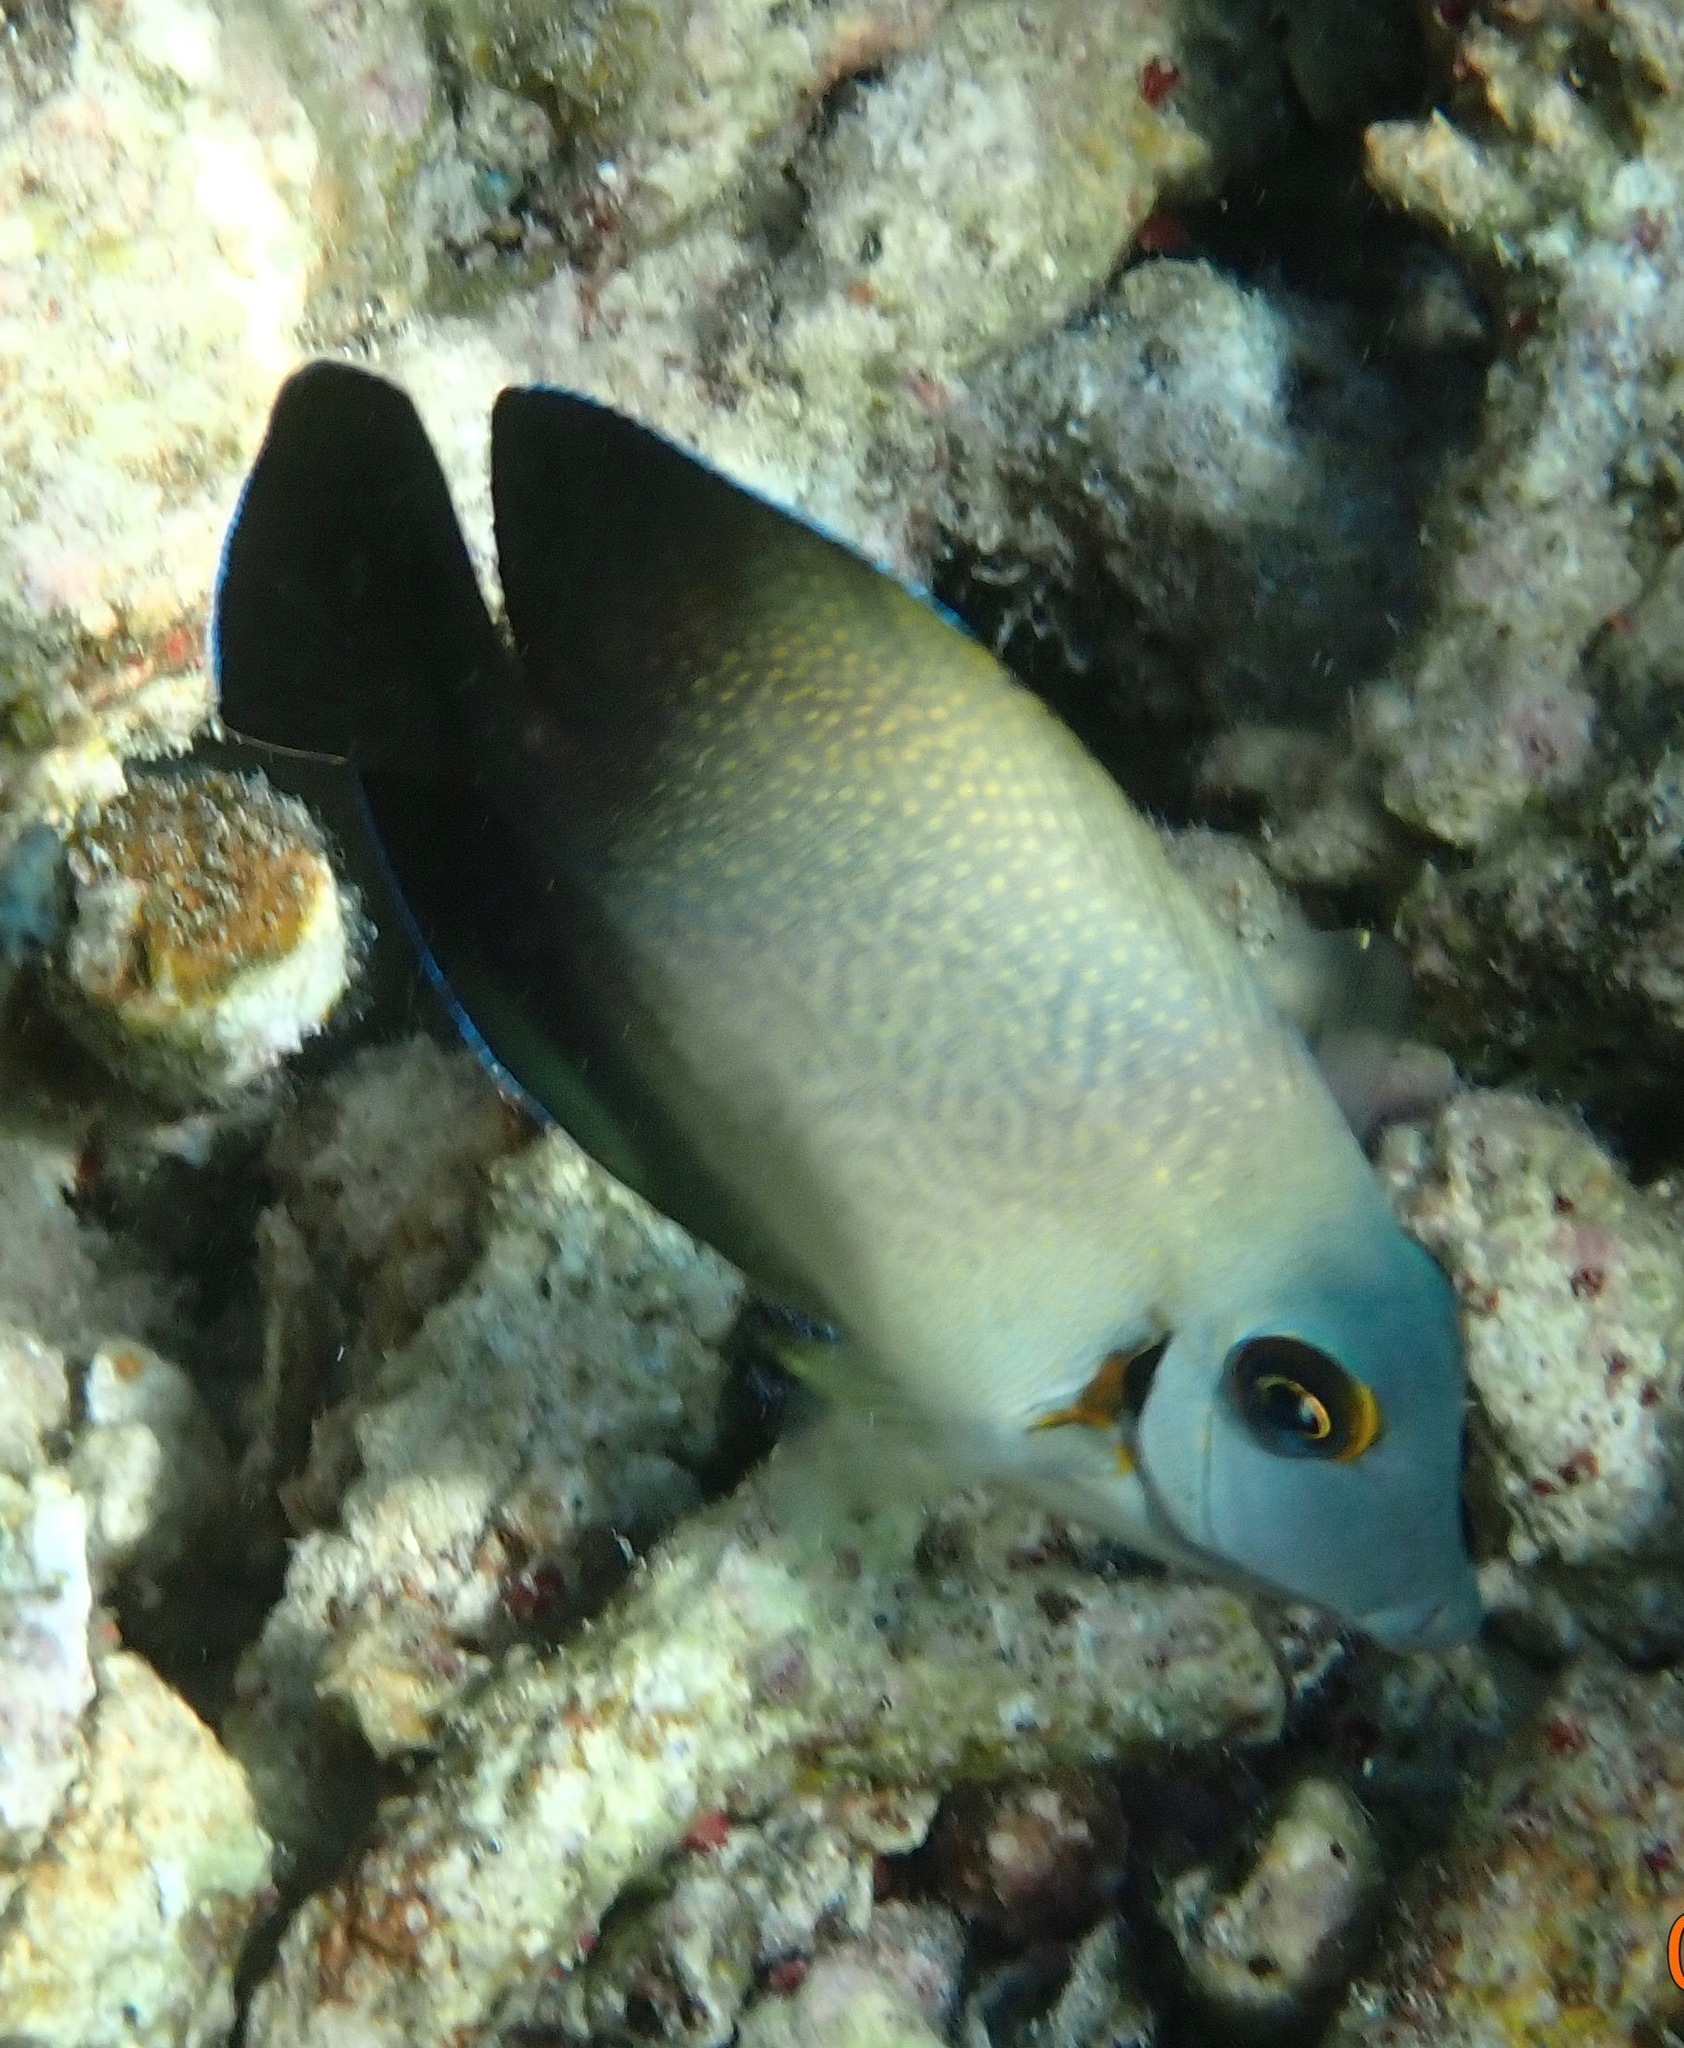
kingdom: Animalia
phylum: Chordata
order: Perciformes
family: Acanthuridae
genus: Acanthurus
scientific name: Acanthurus pyroferus
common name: Chocolate surgeonfish
